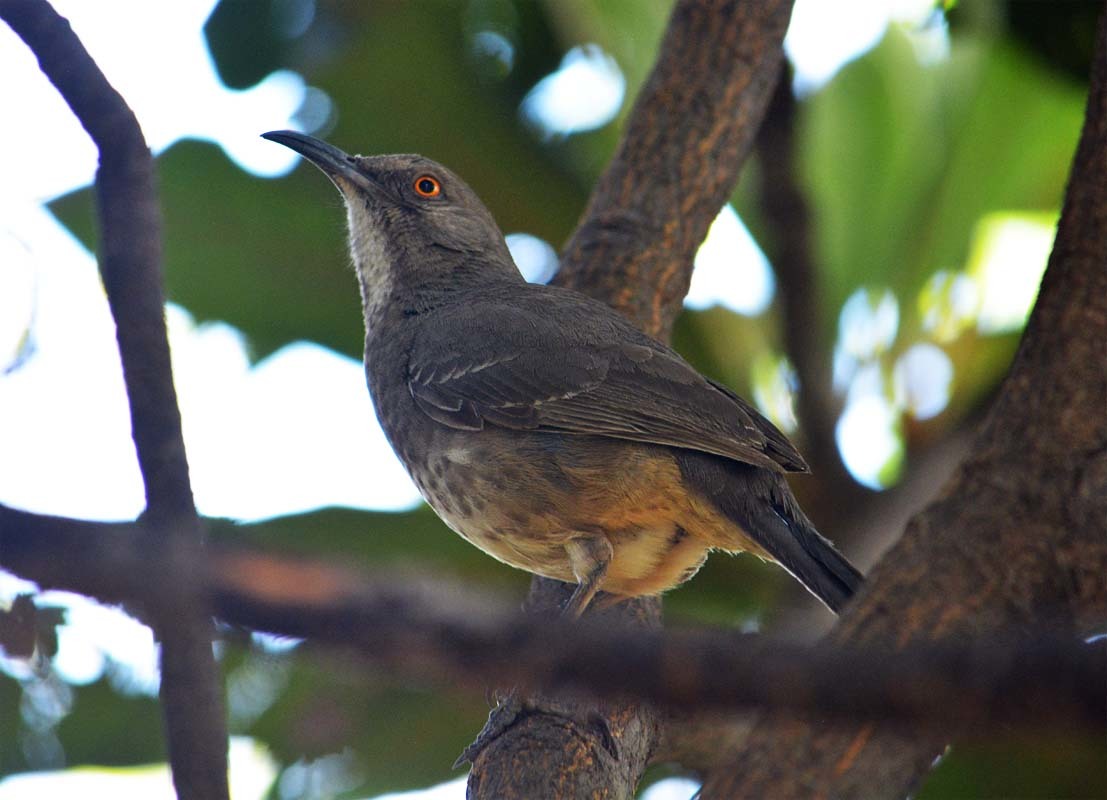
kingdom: Animalia
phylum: Chordata
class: Aves
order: Passeriformes
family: Mimidae
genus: Toxostoma
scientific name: Toxostoma curvirostre
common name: Curve-billed thrasher
